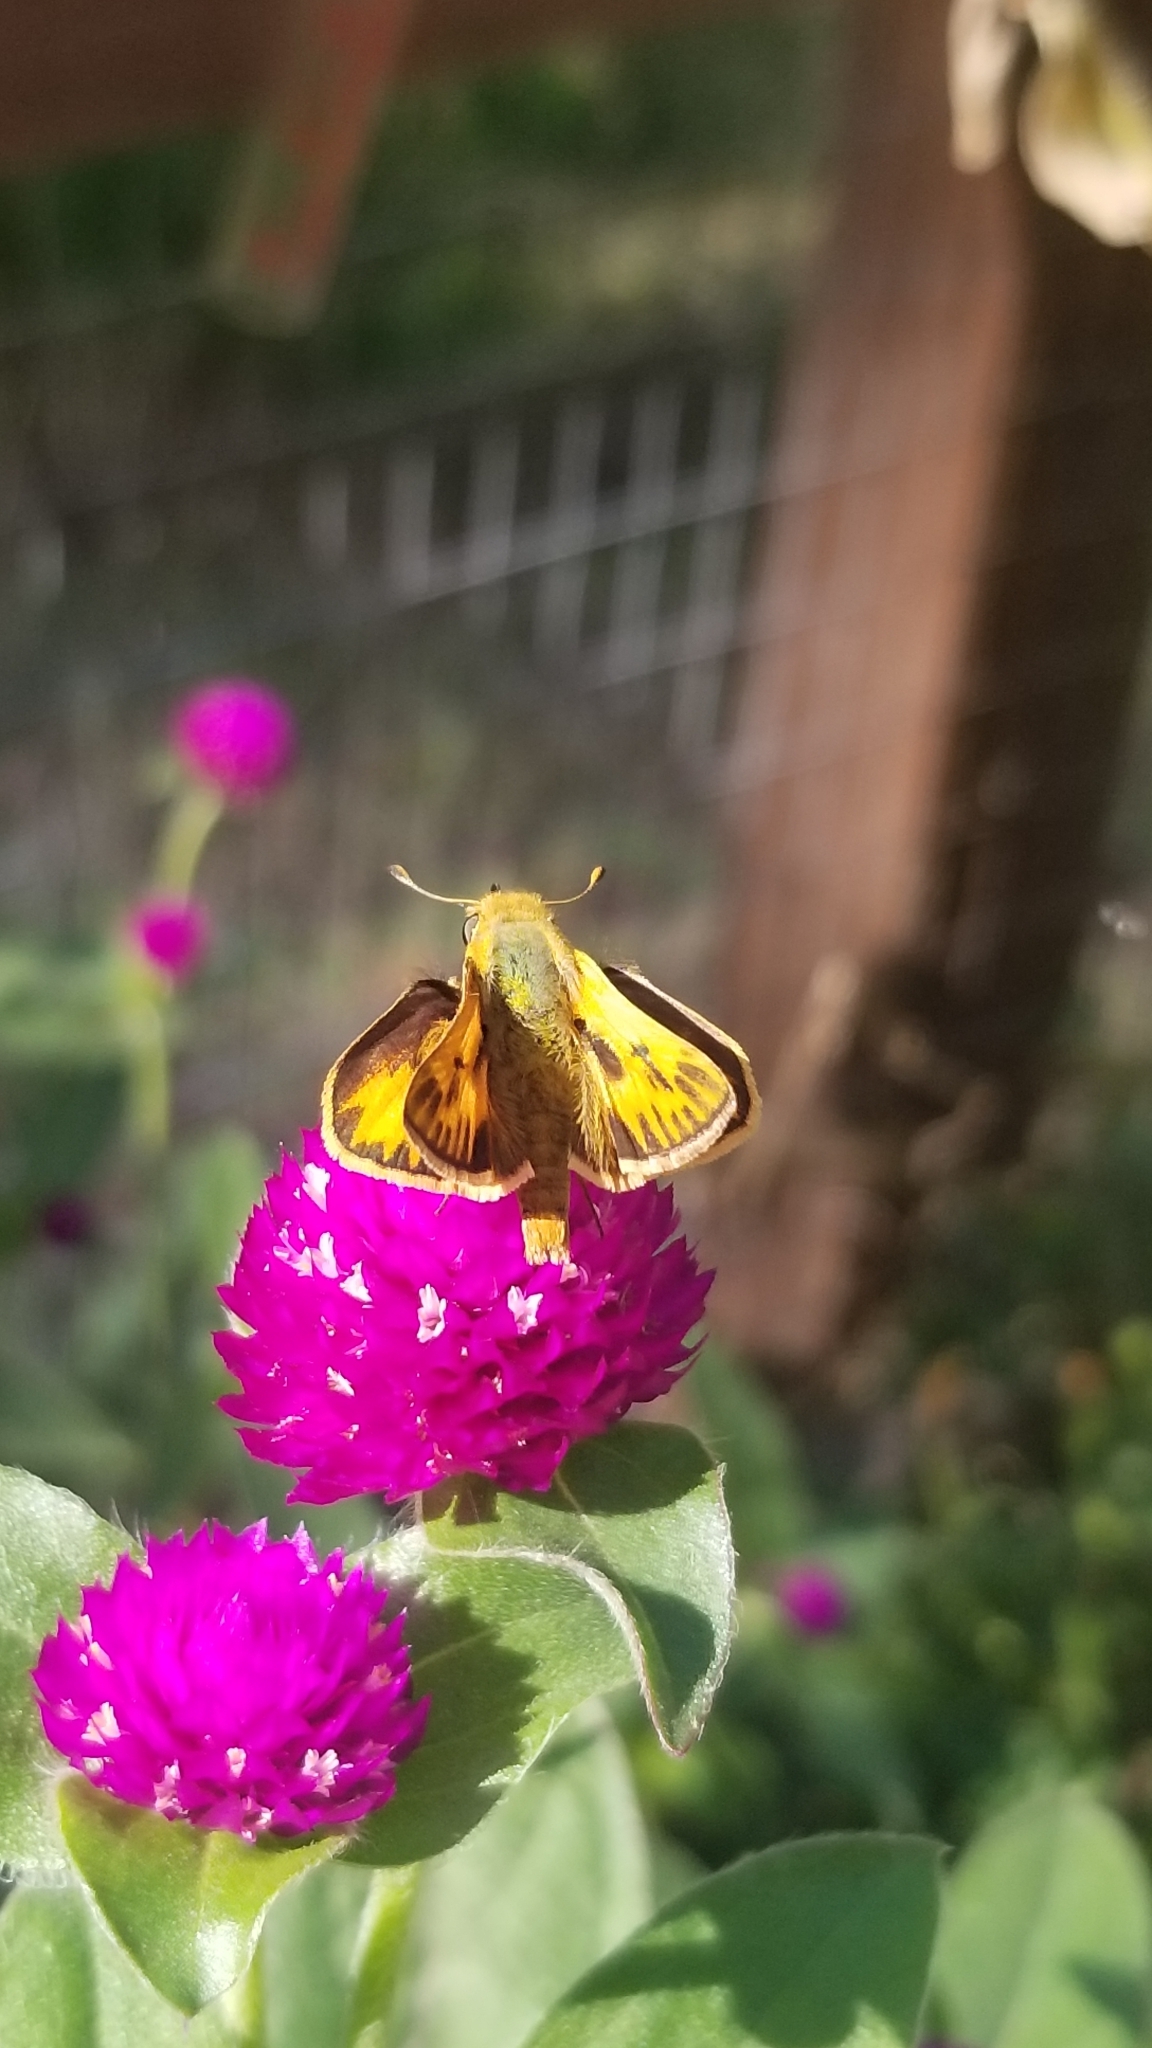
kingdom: Animalia
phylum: Arthropoda
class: Insecta
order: Lepidoptera
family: Hesperiidae
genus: Hylephila
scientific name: Hylephila phyleus
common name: Fiery skipper
